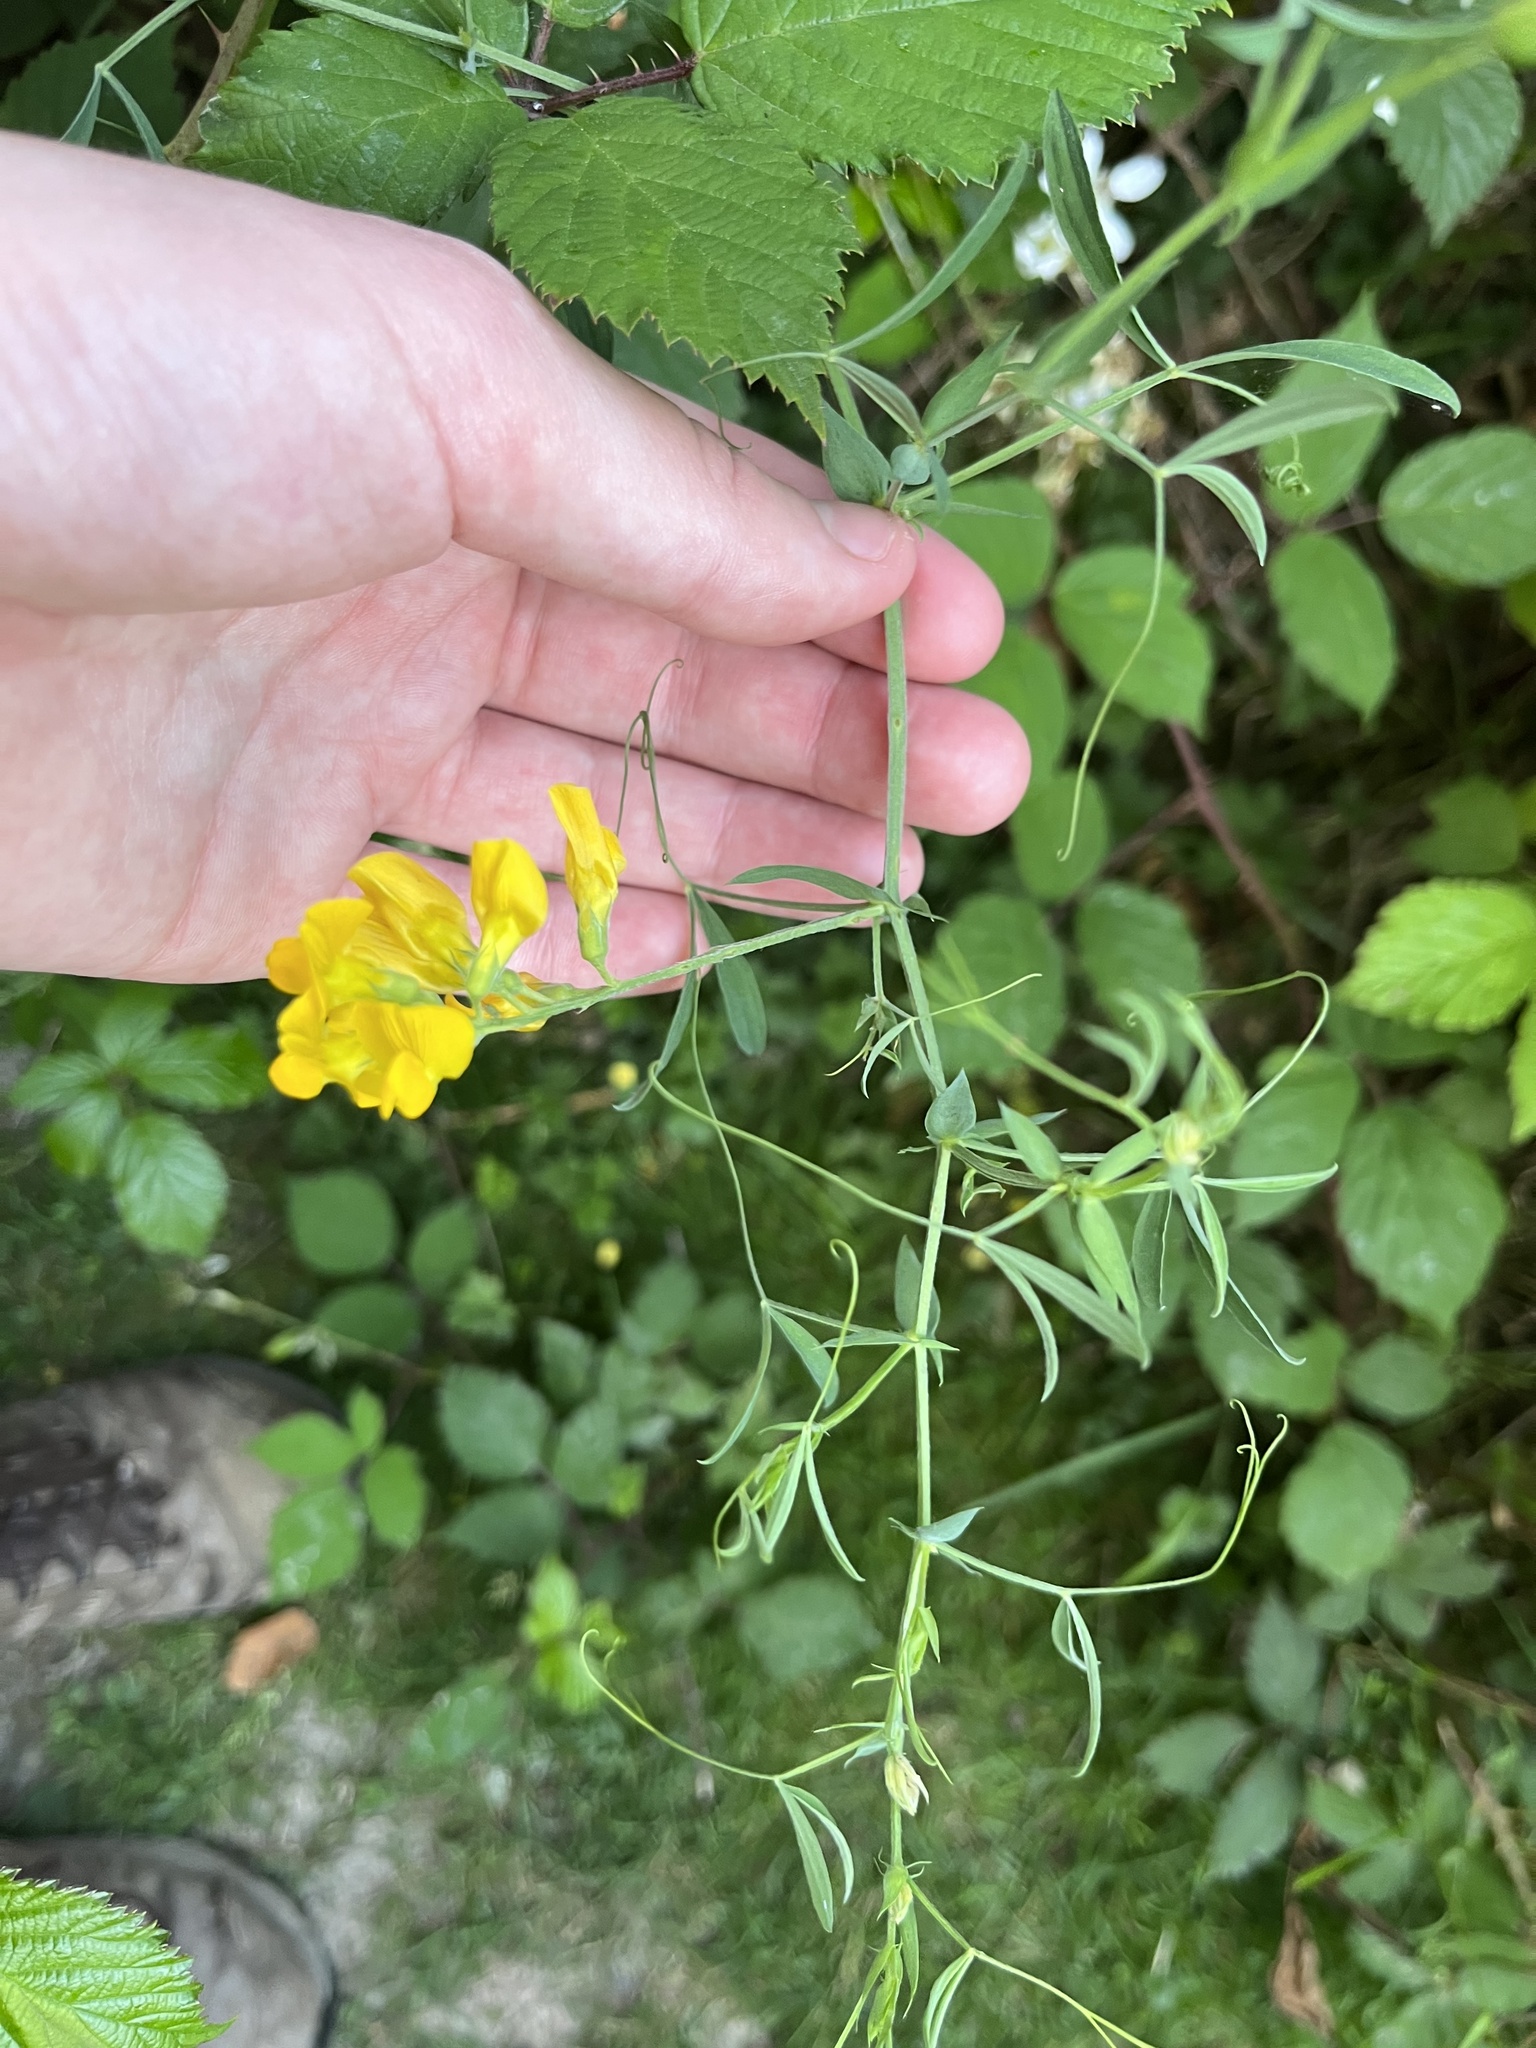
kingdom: Plantae
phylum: Tracheophyta
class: Magnoliopsida
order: Fabales
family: Fabaceae
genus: Lathyrus
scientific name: Lathyrus pratensis
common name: Meadow vetchling
